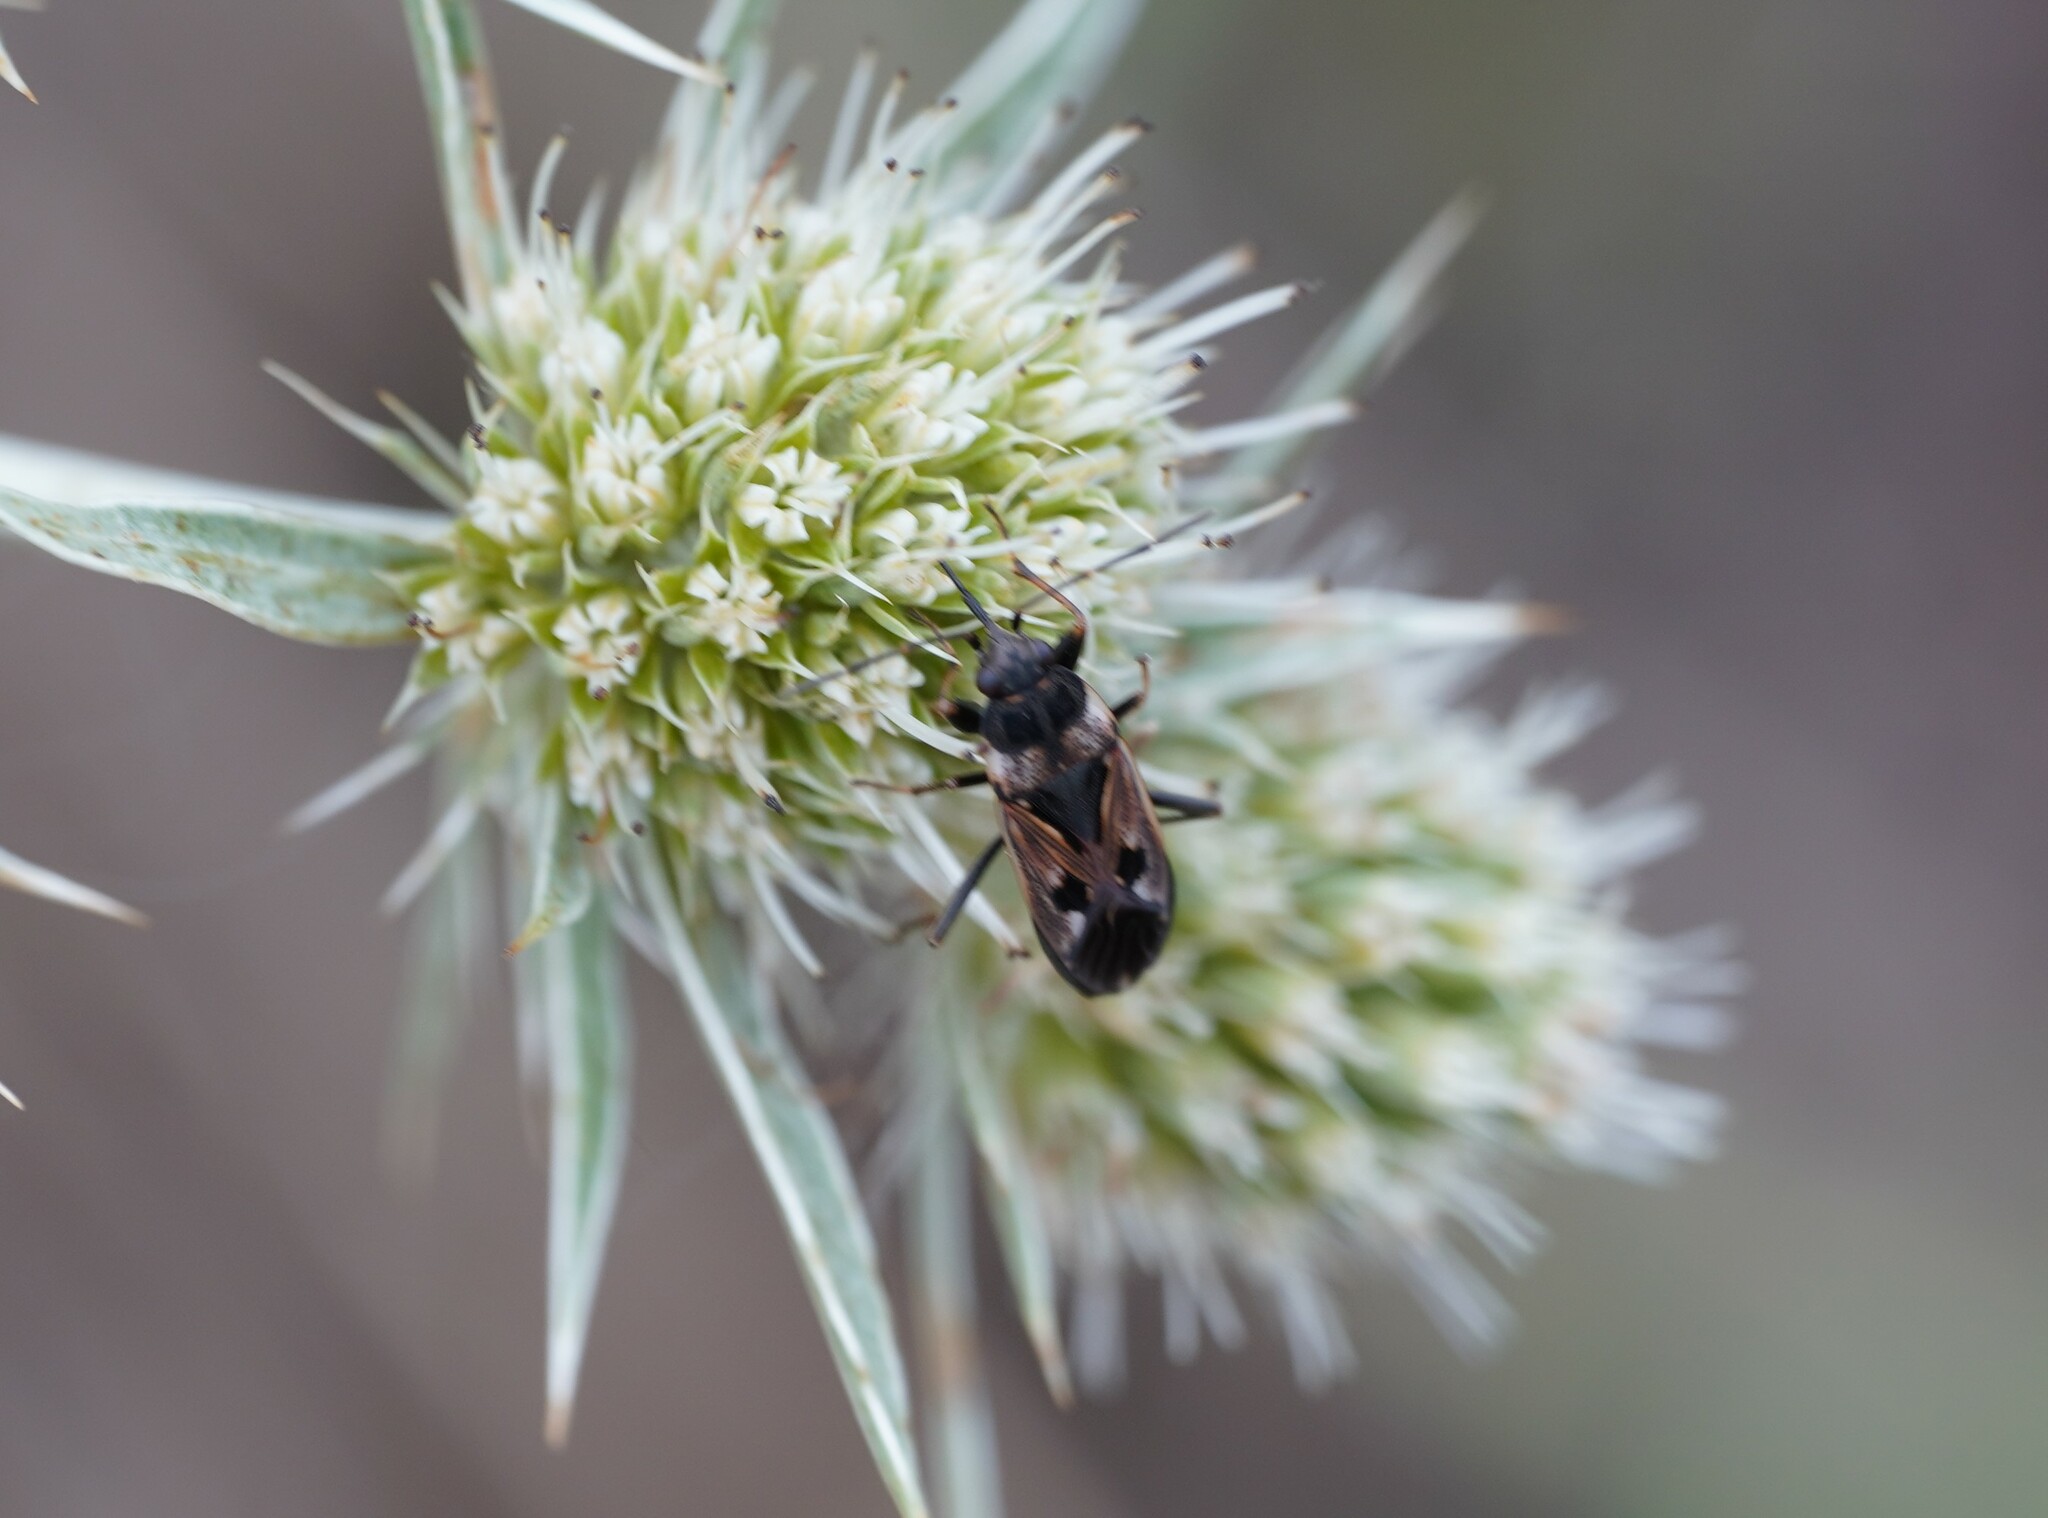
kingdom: Animalia
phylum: Arthropoda
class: Insecta
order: Hemiptera
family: Rhyparochromidae
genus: Rhyparochromus
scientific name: Rhyparochromus vulgaris
